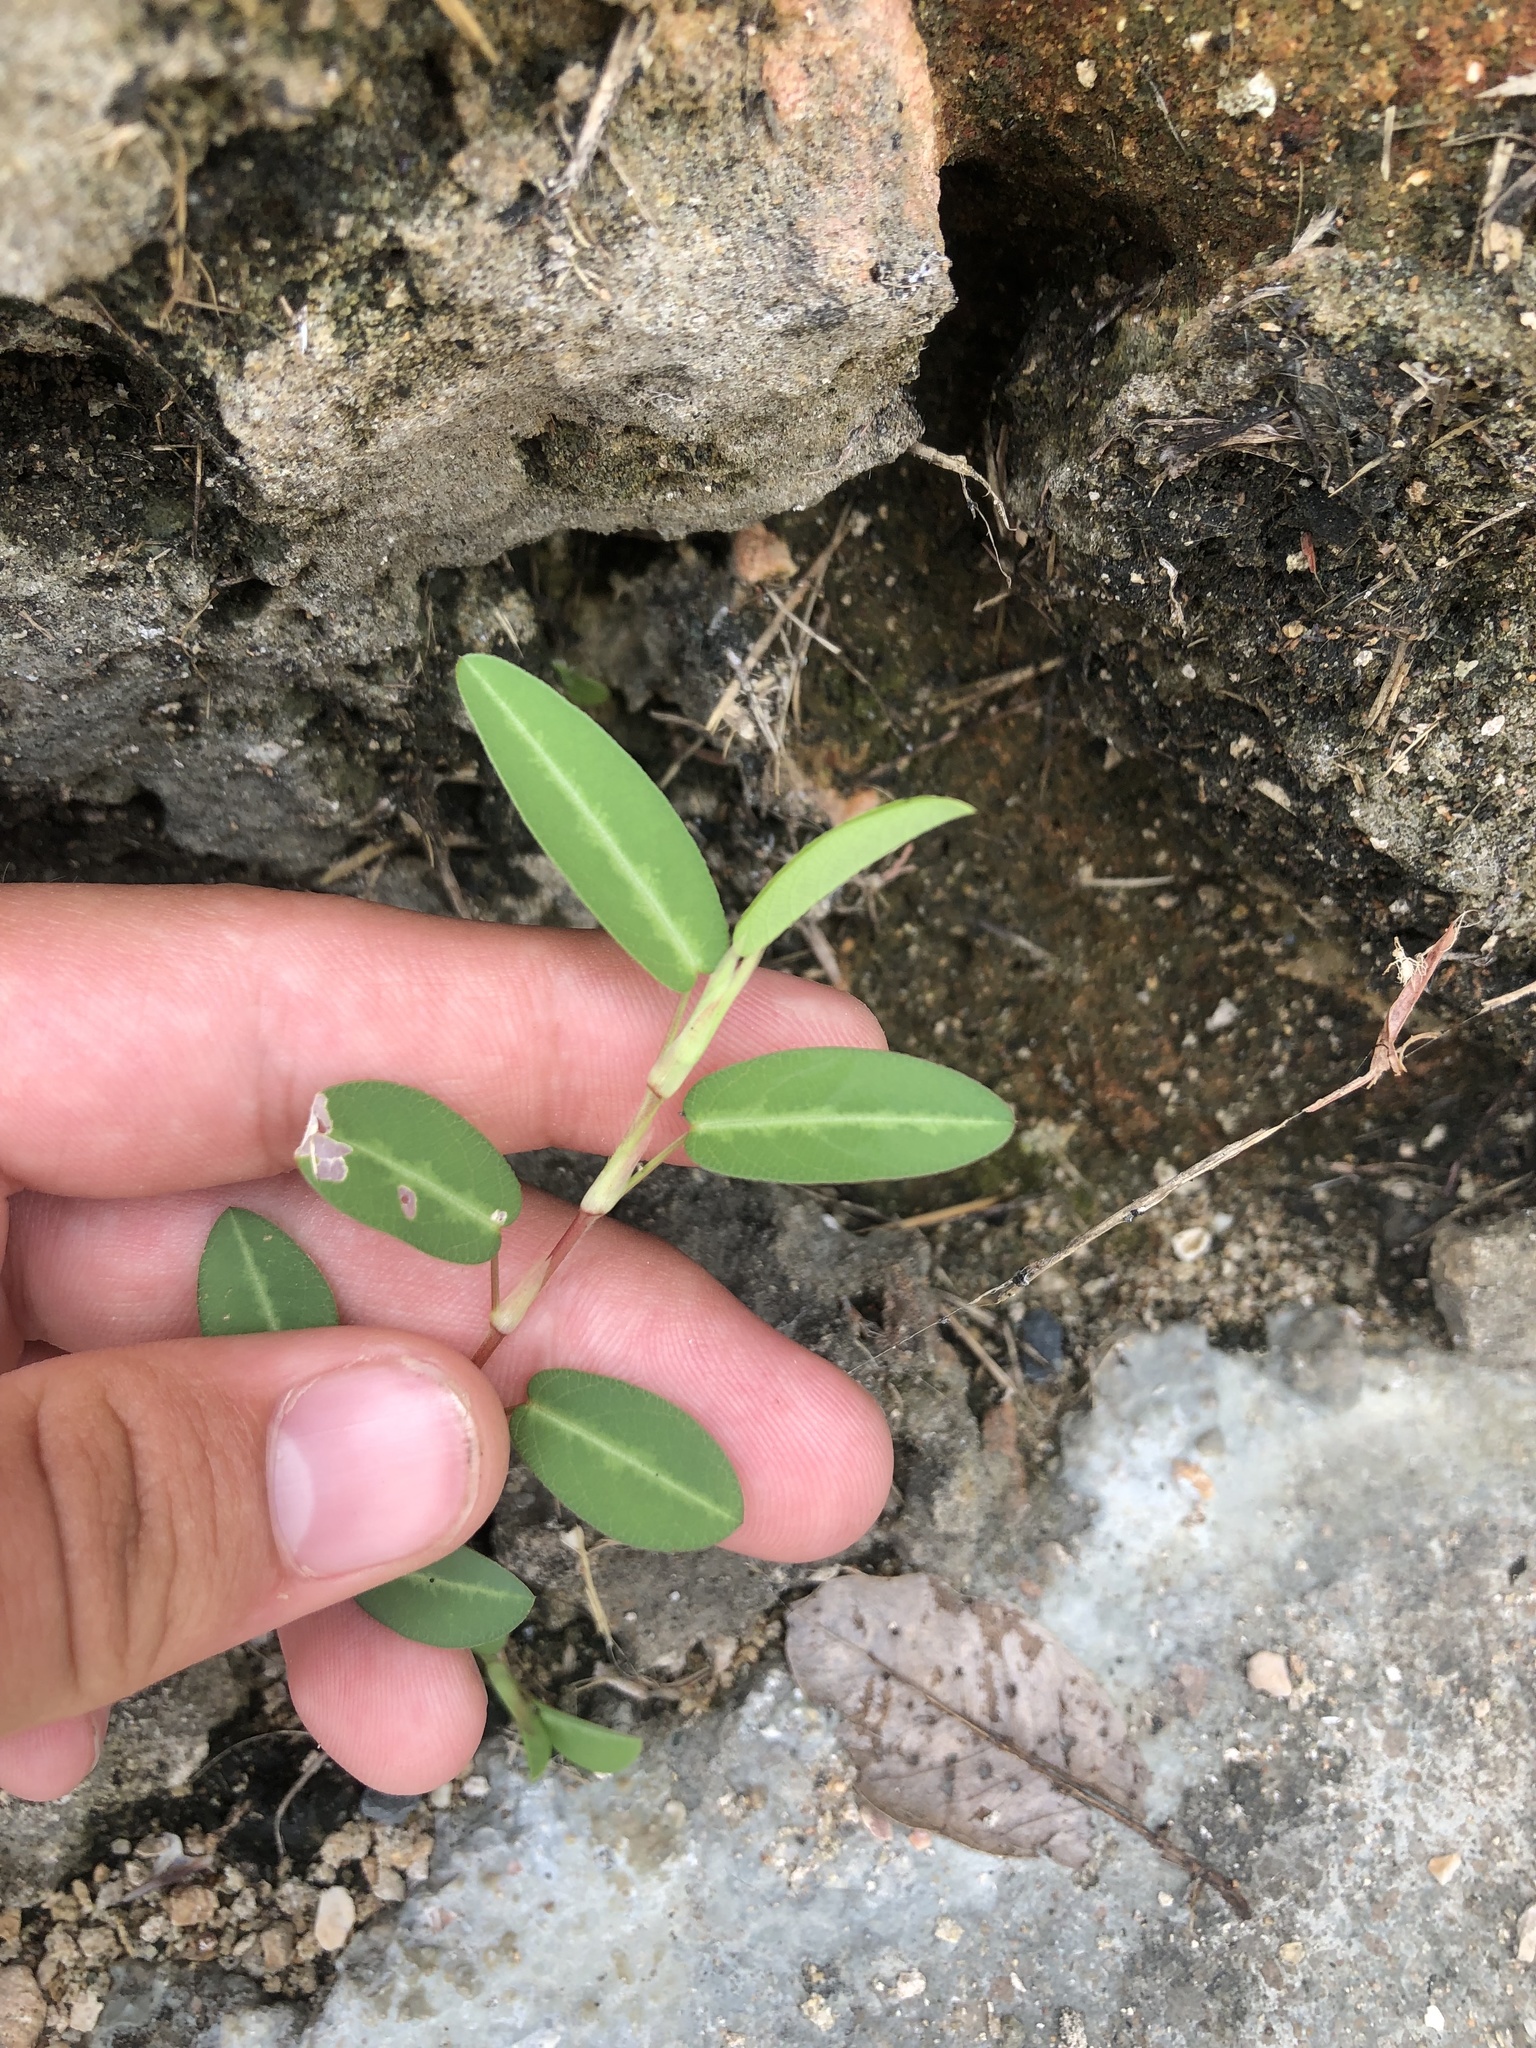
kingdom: Plantae
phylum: Tracheophyta
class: Magnoliopsida
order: Fabales
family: Fabaceae
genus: Alysicarpus
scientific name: Alysicarpus vaginalis
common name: White moneywort
